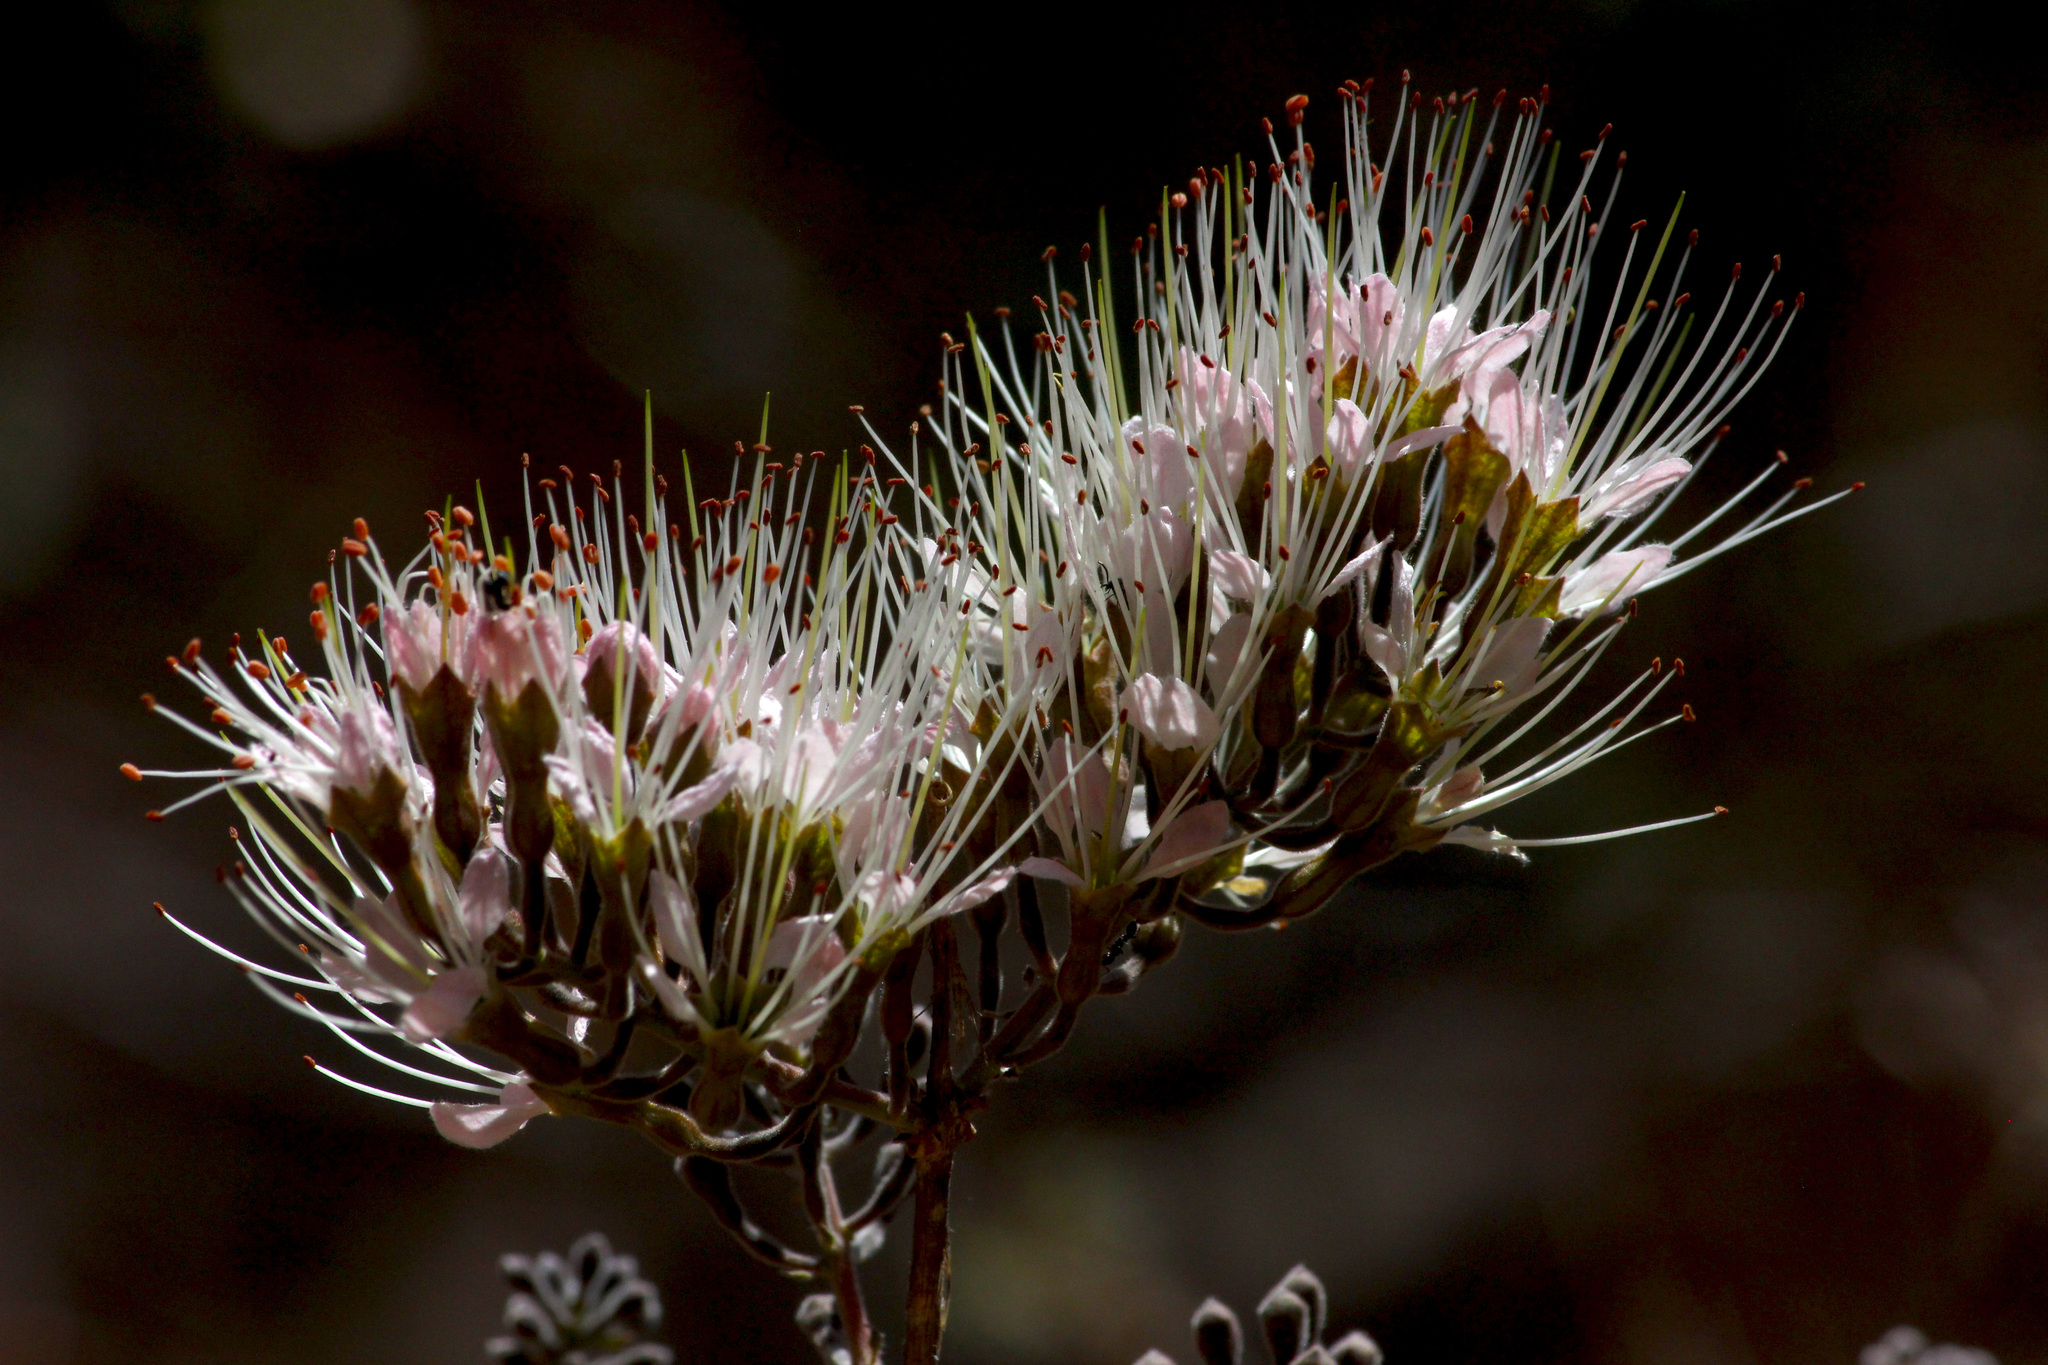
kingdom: Plantae
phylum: Tracheophyta
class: Magnoliopsida
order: Myrtales
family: Combretaceae
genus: Combretum
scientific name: Combretum mossambicense
